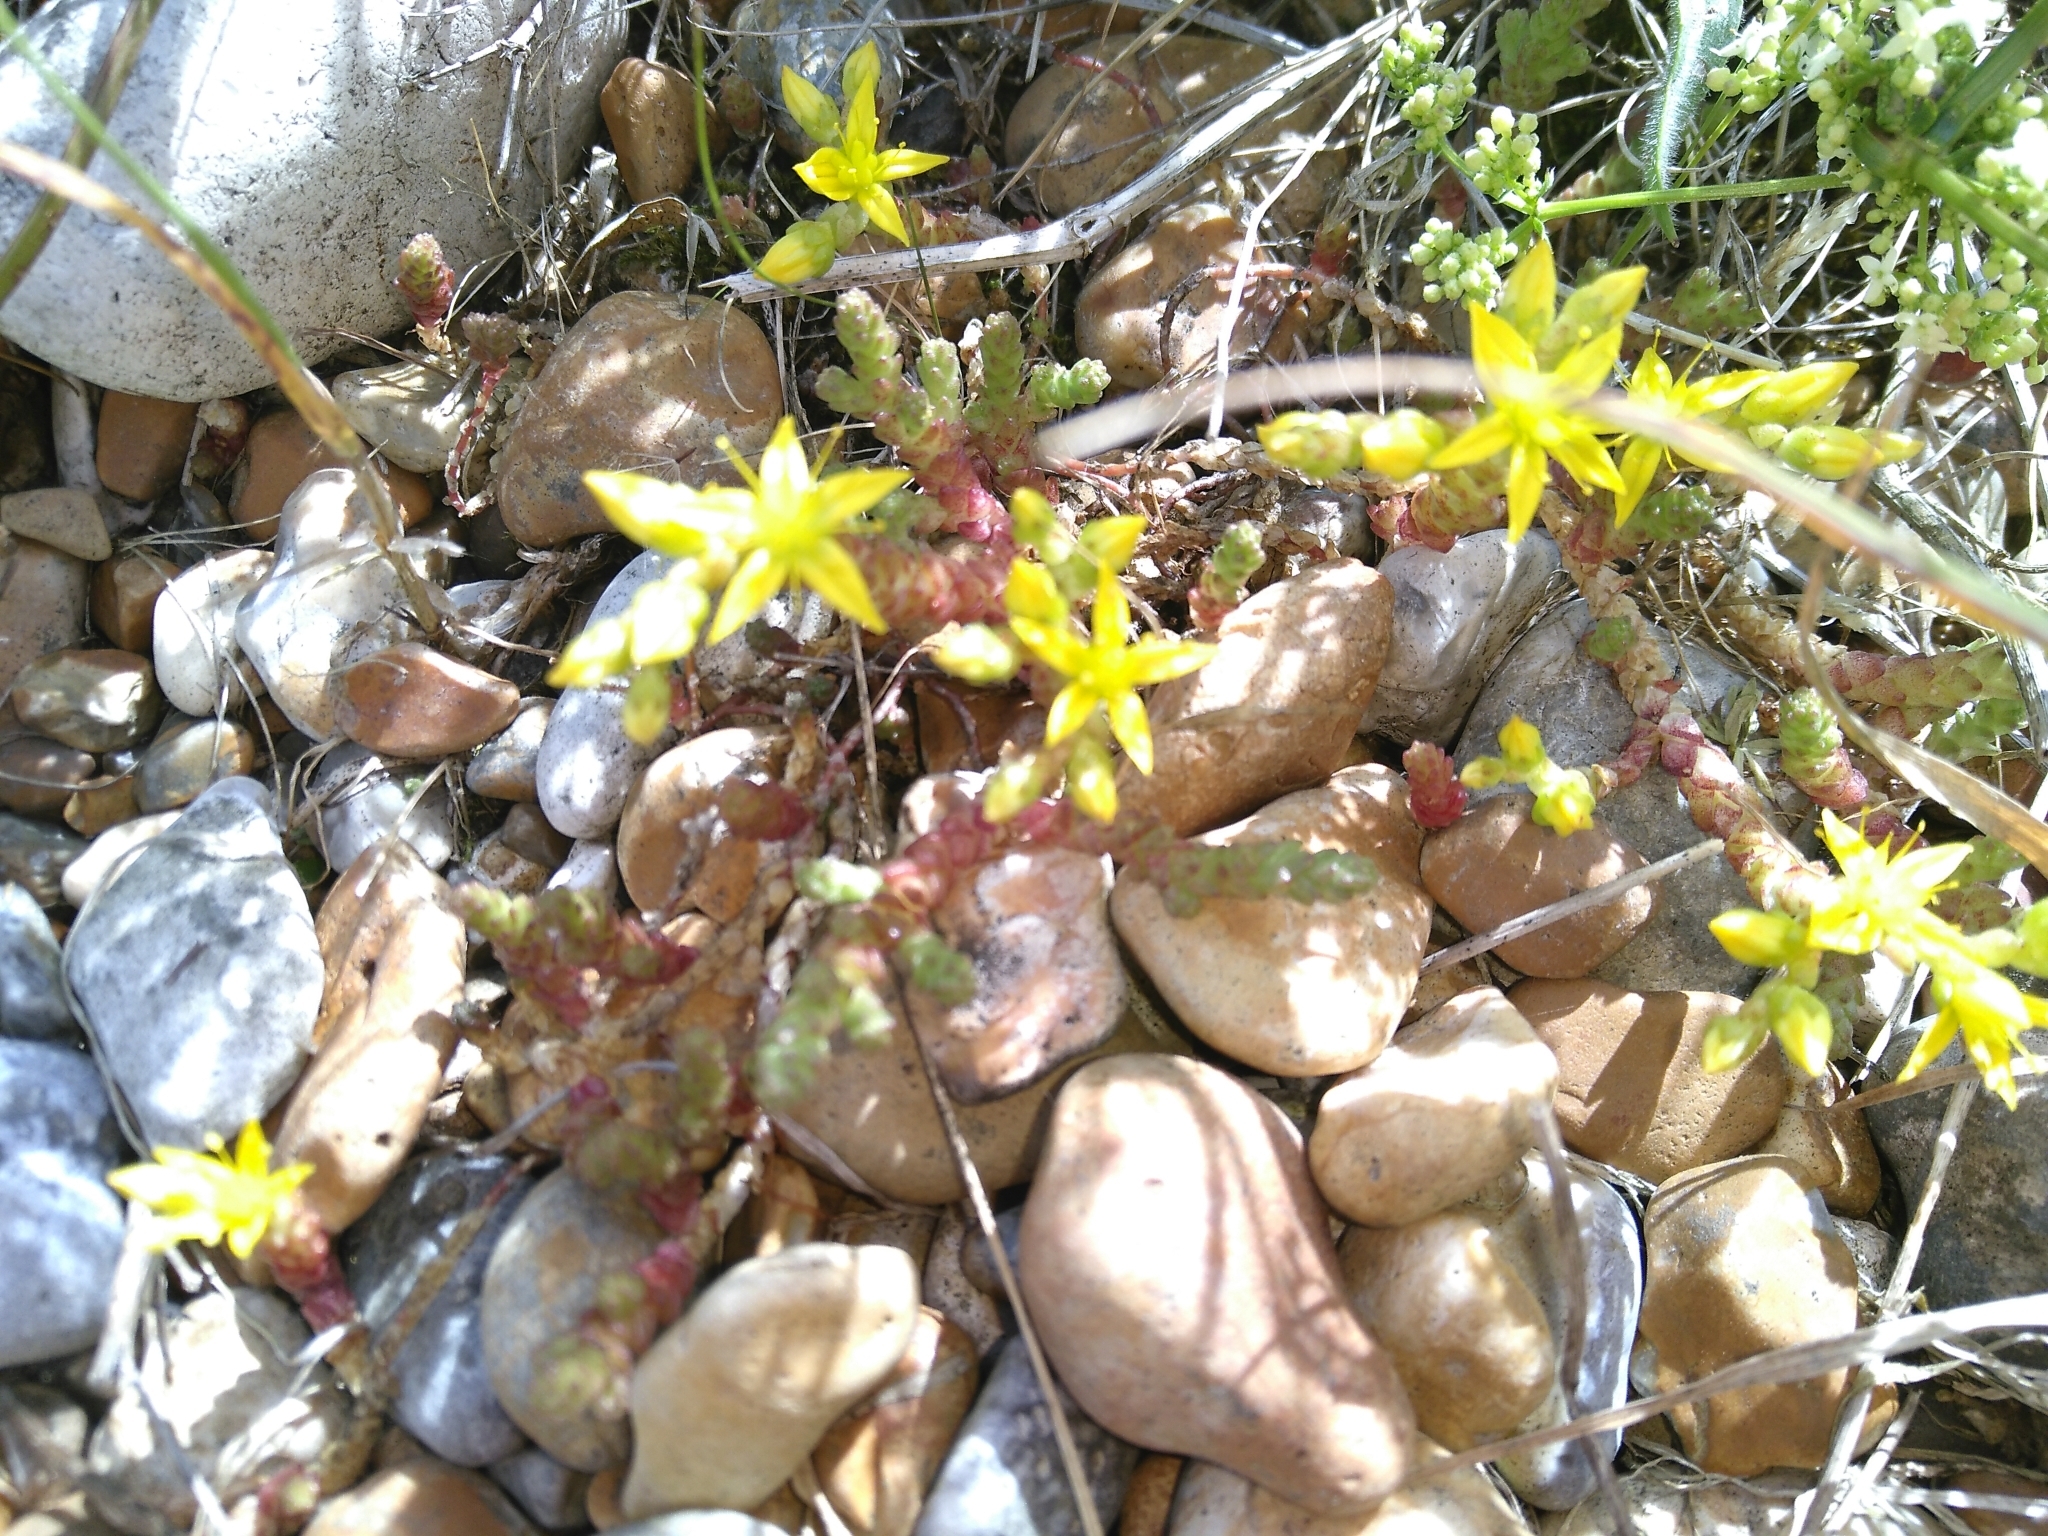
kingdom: Plantae
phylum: Tracheophyta
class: Magnoliopsida
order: Saxifragales
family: Crassulaceae
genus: Sedum
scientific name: Sedum acre
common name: Biting stonecrop
